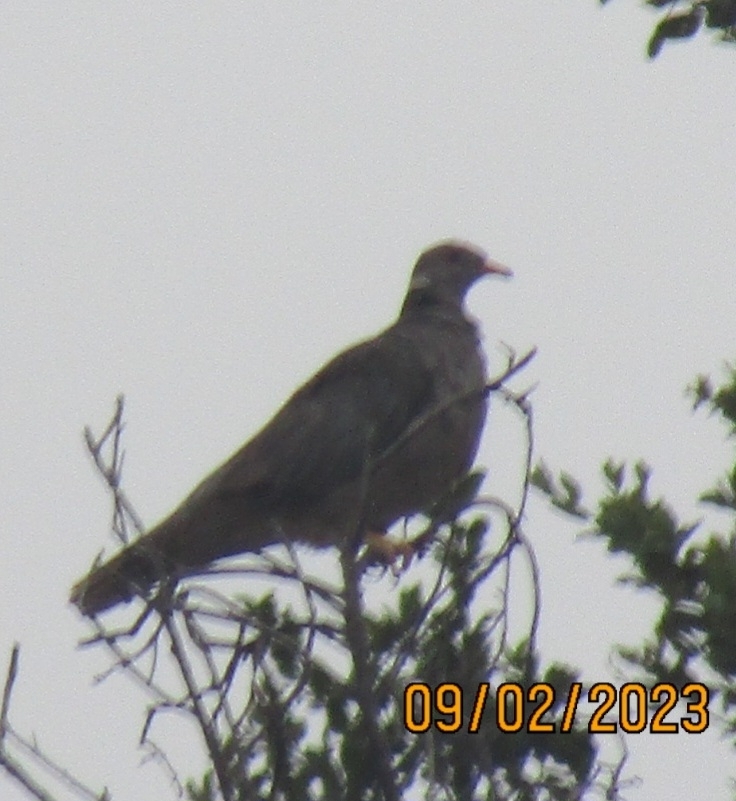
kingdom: Animalia
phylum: Chordata
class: Aves
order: Columbiformes
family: Columbidae
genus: Patagioenas
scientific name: Patagioenas fasciata
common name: Band-tailed pigeon
